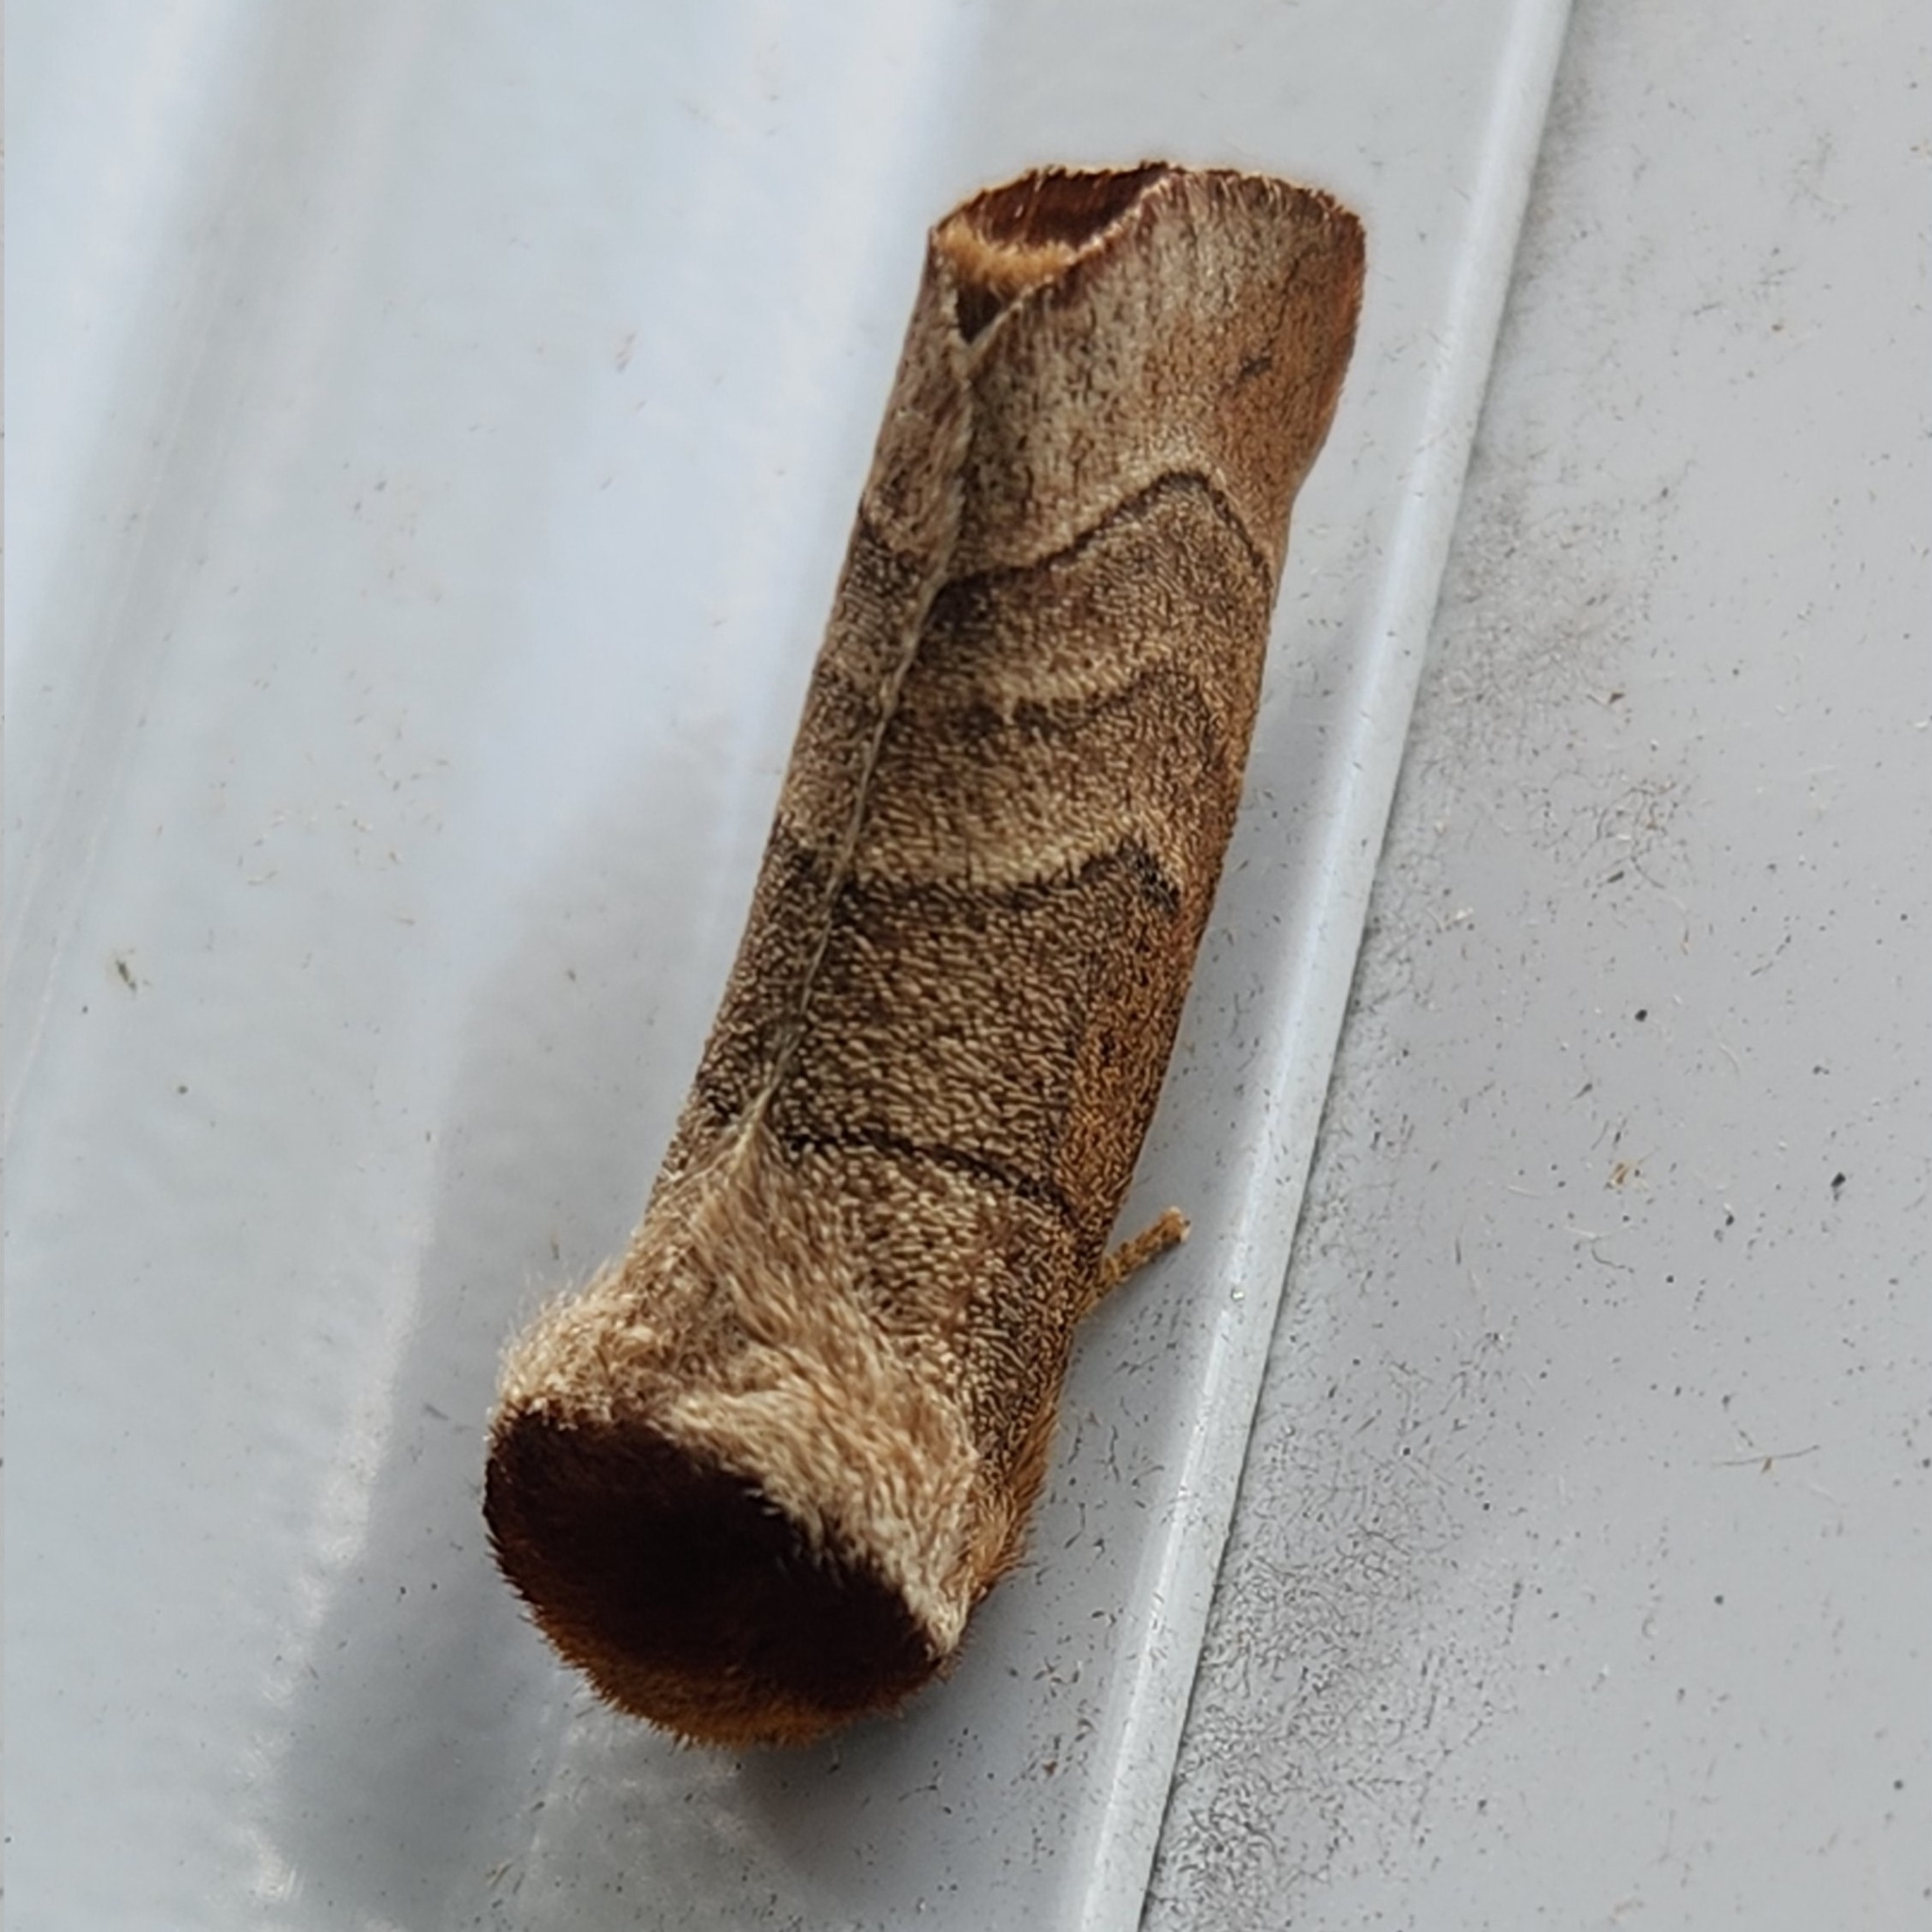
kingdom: Animalia
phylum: Arthropoda
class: Insecta
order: Lepidoptera
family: Notodontidae
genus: Datana
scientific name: Datana integerrima
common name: Walnut caterpillar
